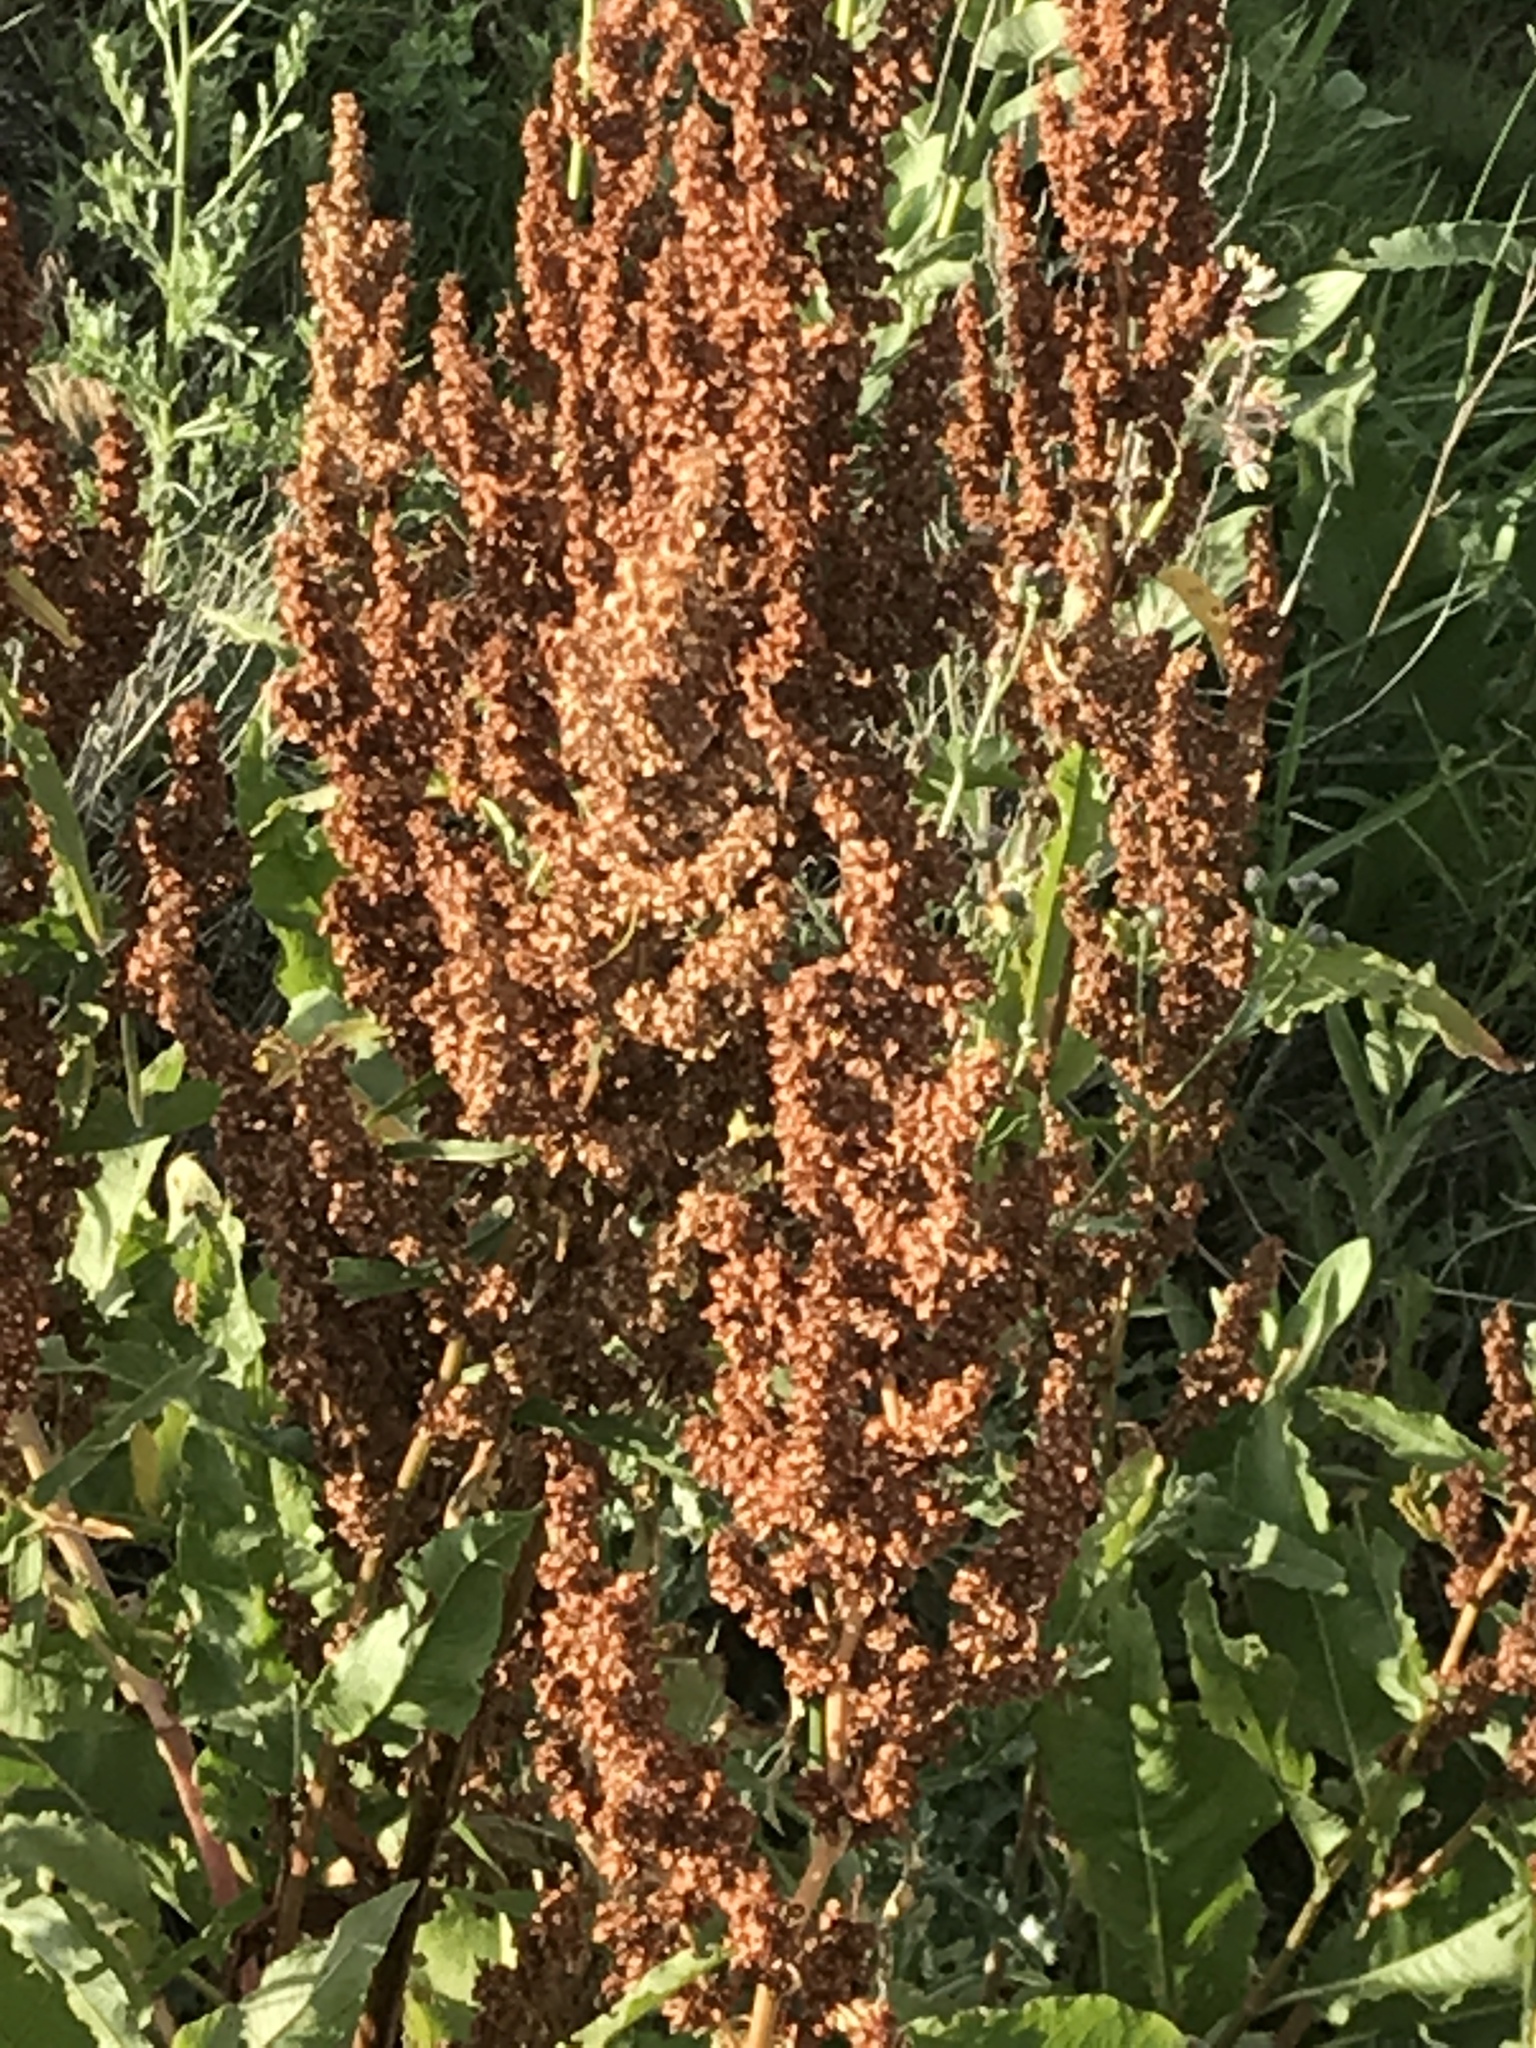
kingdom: Plantae
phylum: Tracheophyta
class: Magnoliopsida
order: Caryophyllales
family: Polygonaceae
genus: Rumex
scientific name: Rumex crispus
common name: Curled dock
